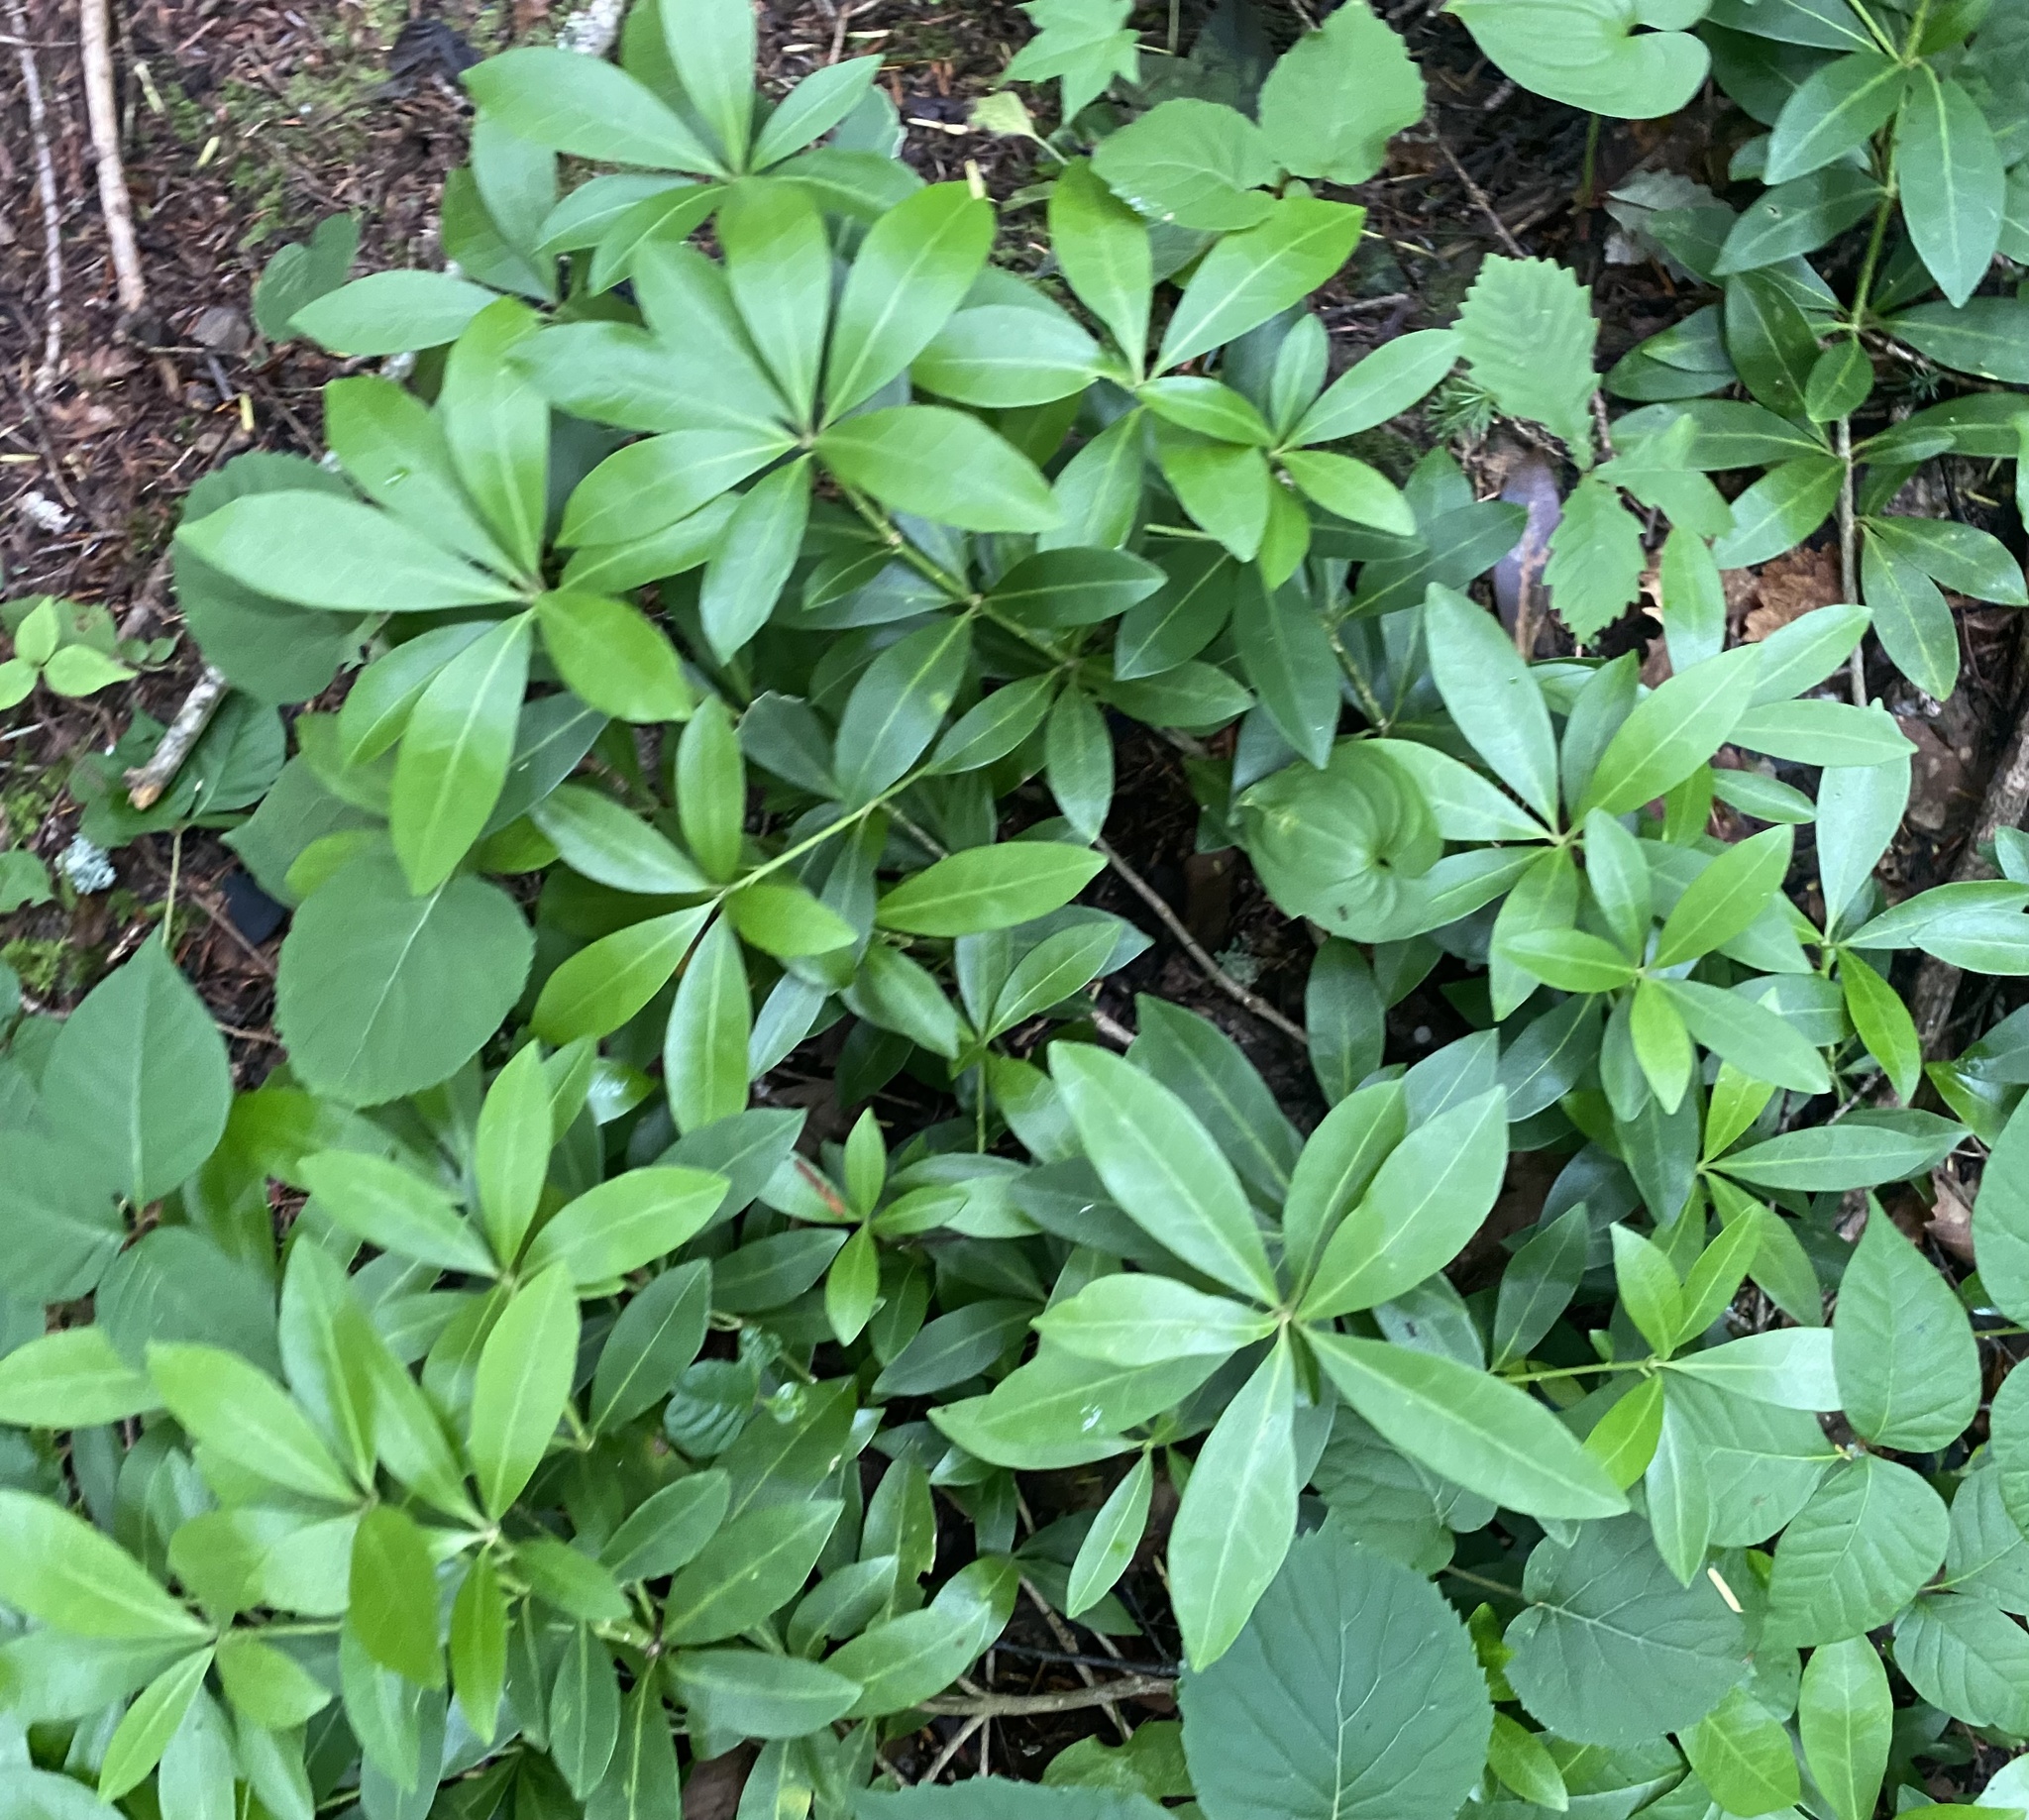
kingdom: Plantae
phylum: Tracheophyta
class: Magnoliopsida
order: Sapindales
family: Rutaceae
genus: Skimmia
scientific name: Skimmia japonica
